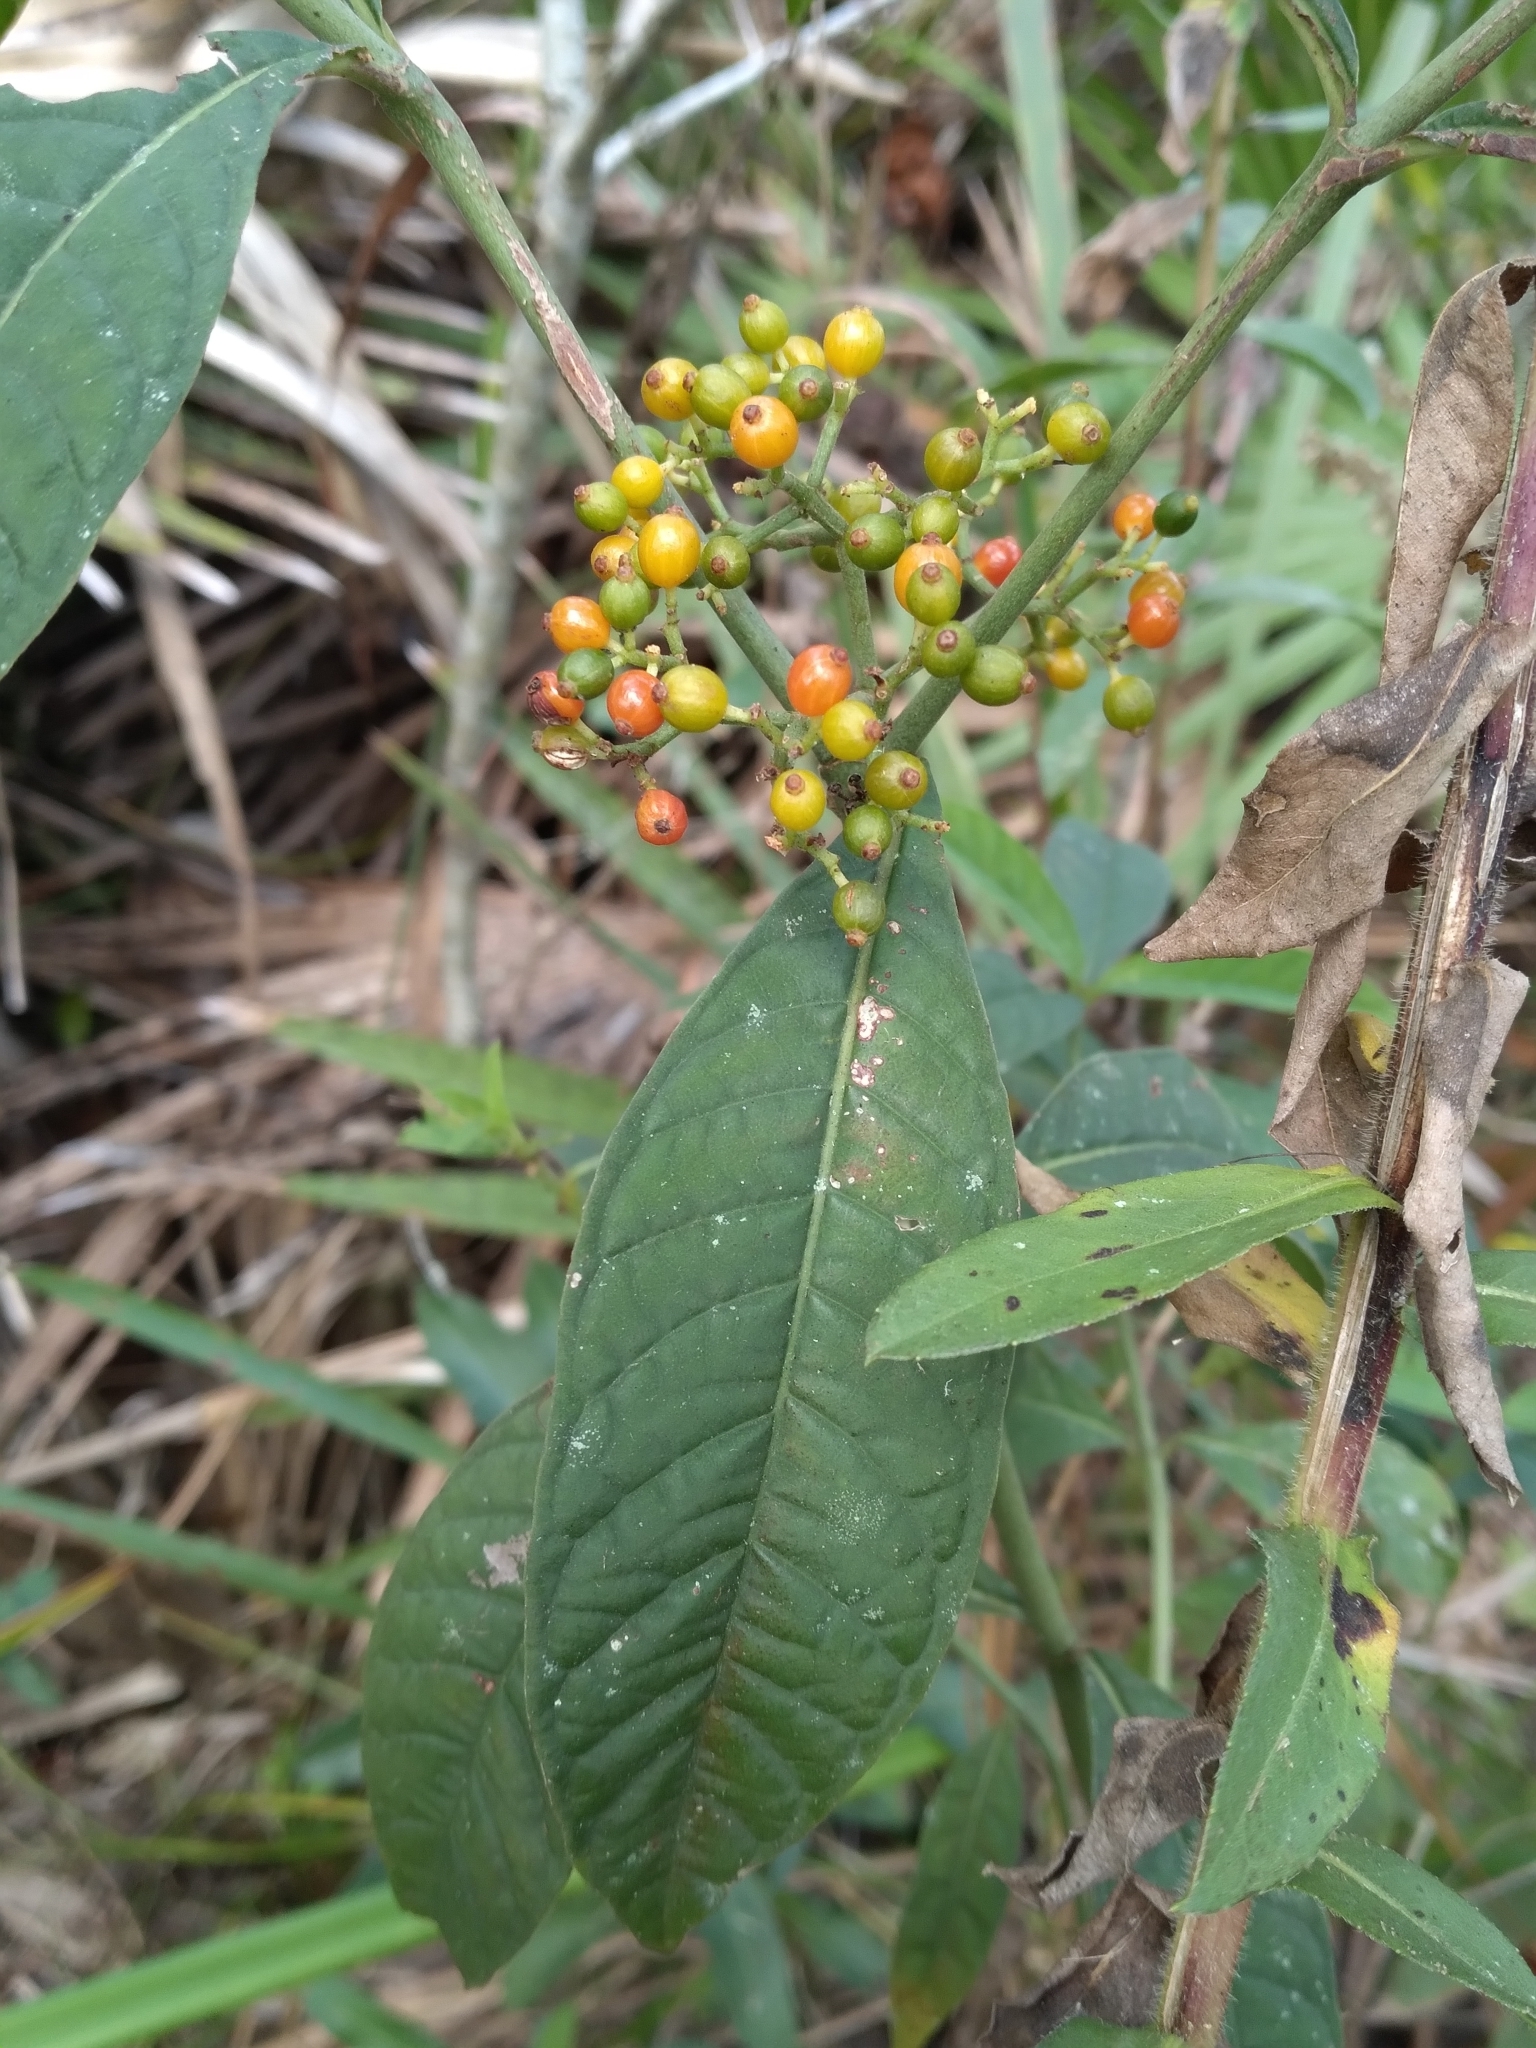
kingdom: Plantae
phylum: Tracheophyta
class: Magnoliopsida
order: Gentianales
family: Rubiaceae
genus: Psychotria
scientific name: Psychotria tenuifolia
